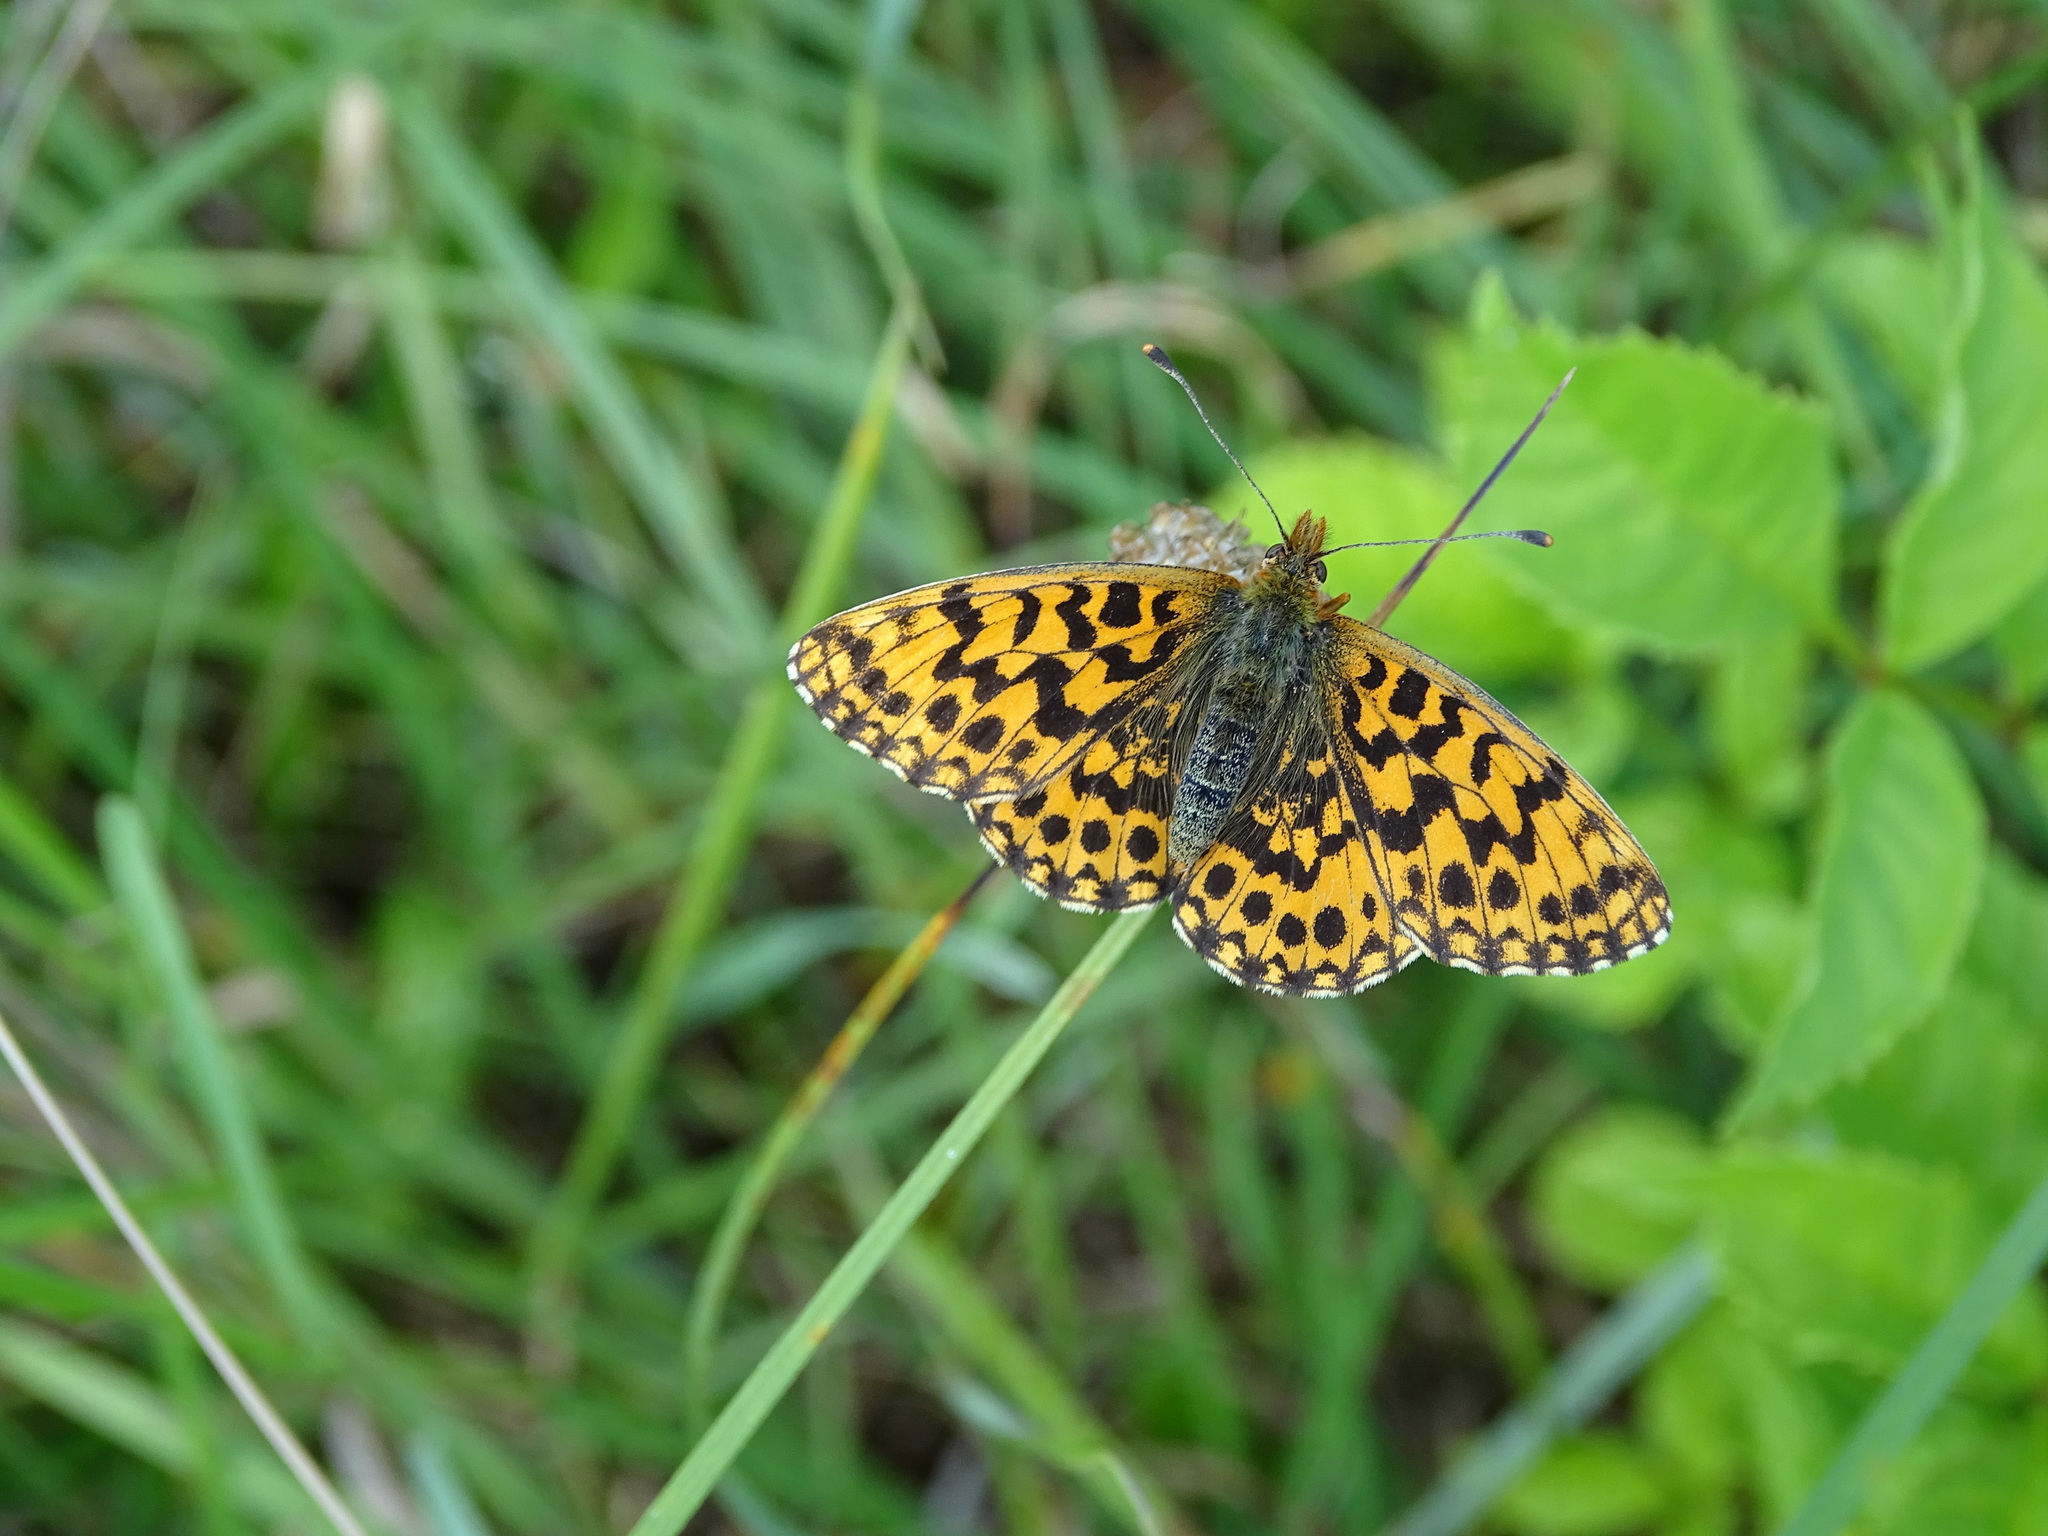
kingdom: Animalia
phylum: Arthropoda
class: Insecta
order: Lepidoptera
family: Nymphalidae
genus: Boloria
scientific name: Boloria dia
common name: Weaver's fritillary
